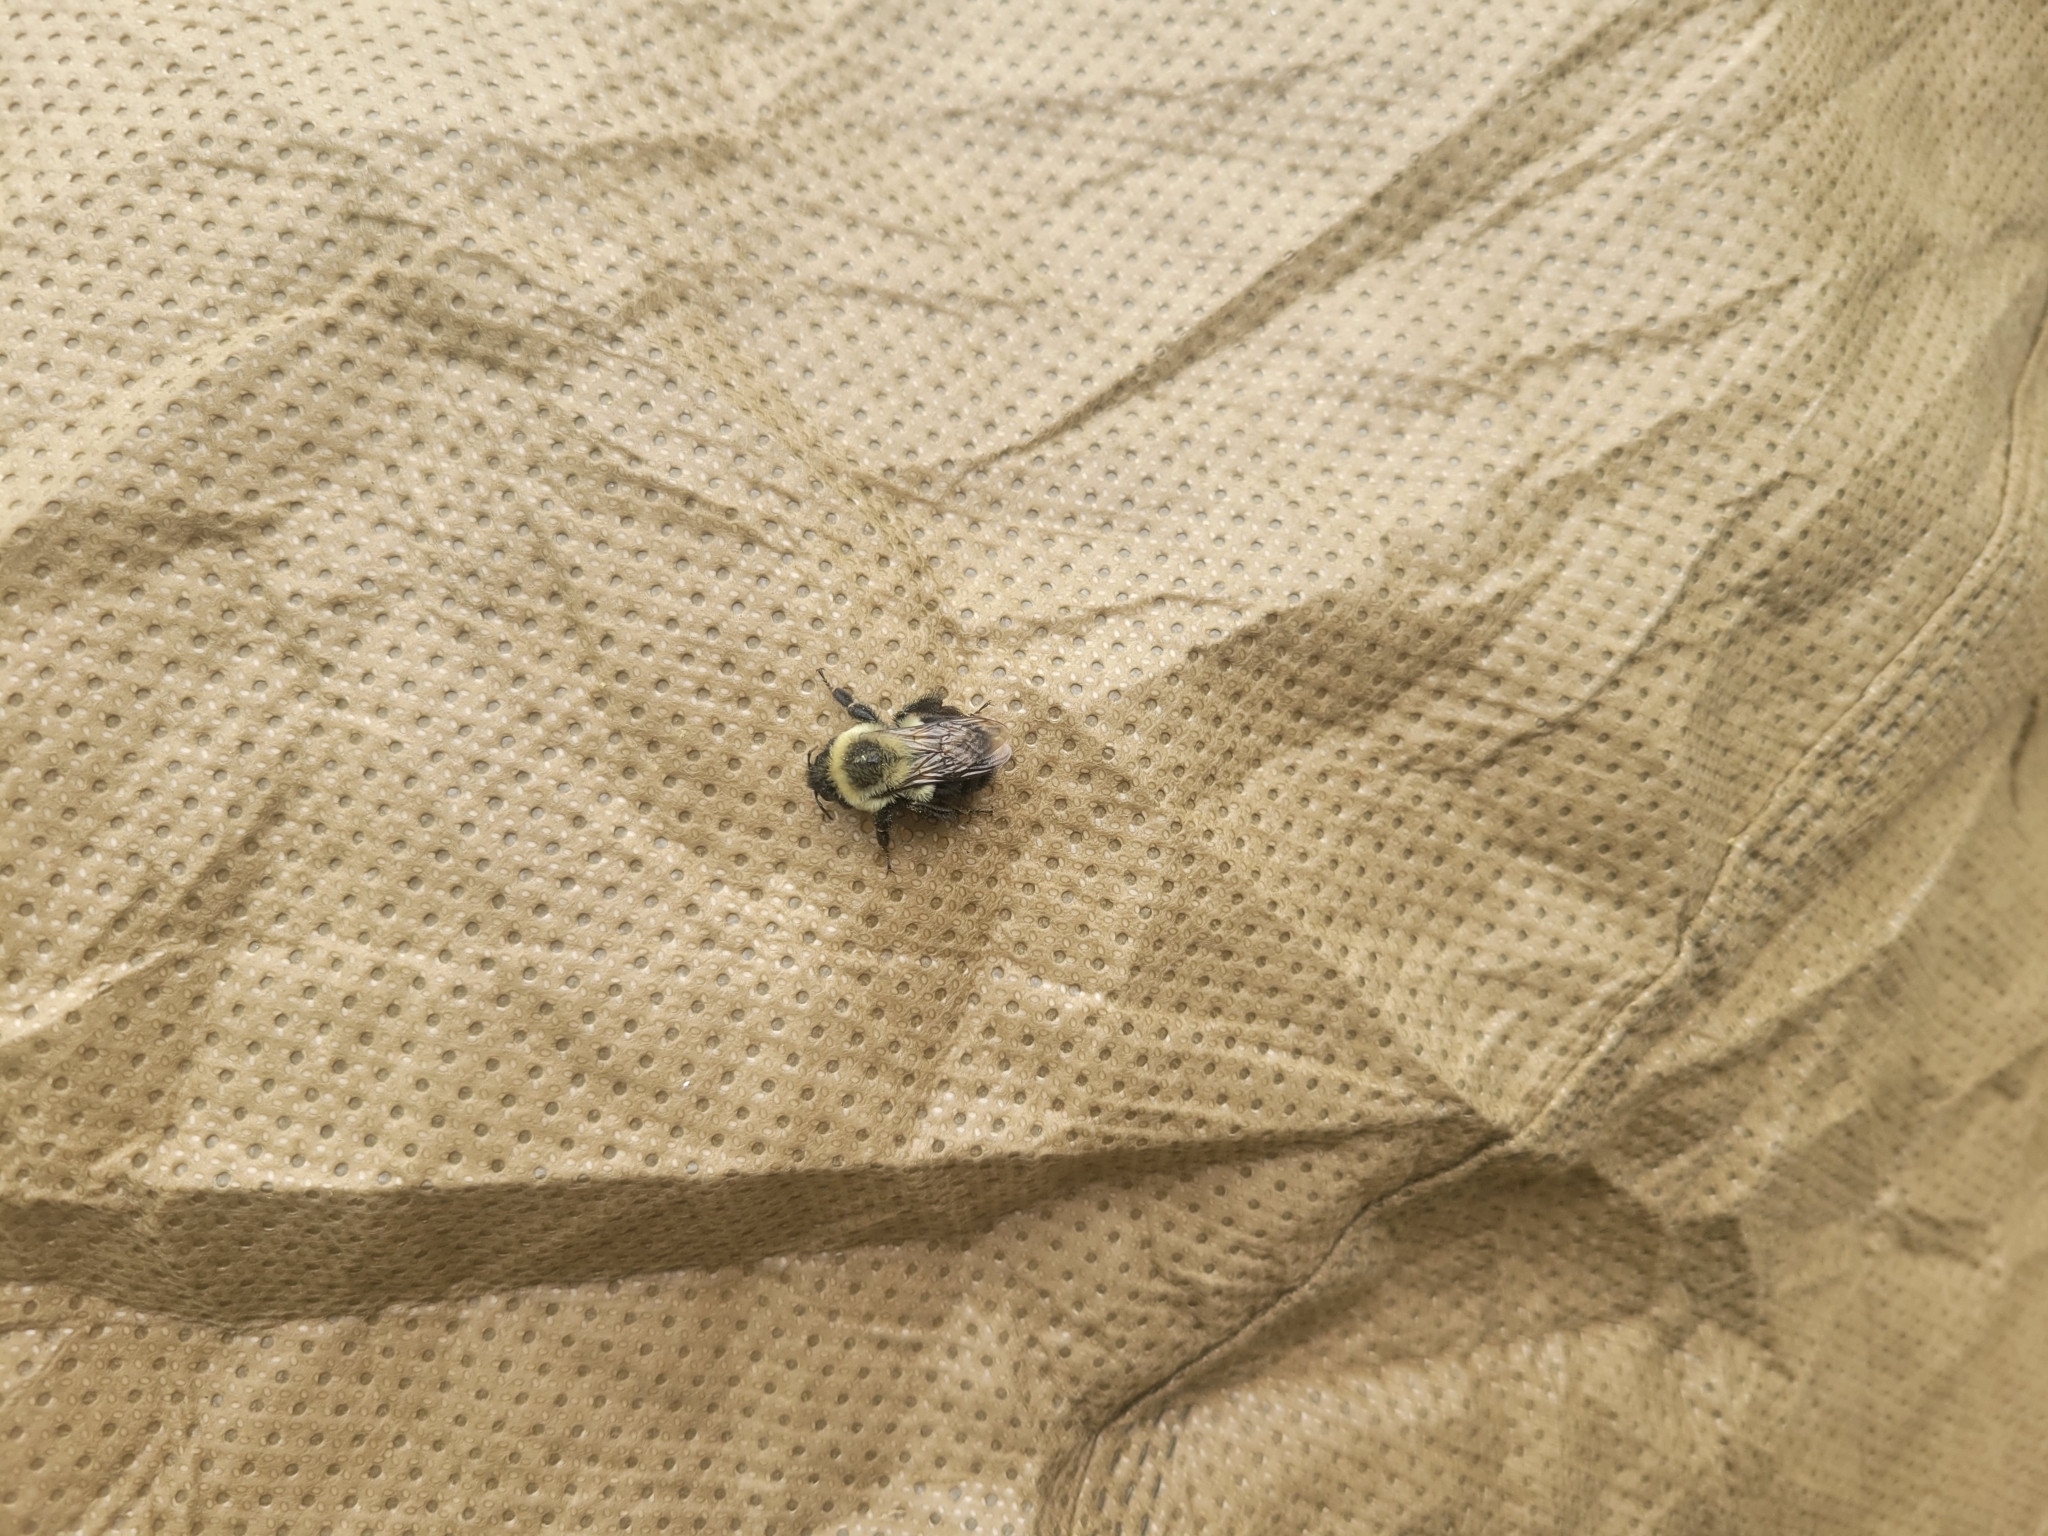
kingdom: Animalia
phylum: Arthropoda
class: Insecta
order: Hymenoptera
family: Apidae
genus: Bombus
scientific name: Bombus impatiens
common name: Common eastern bumble bee
